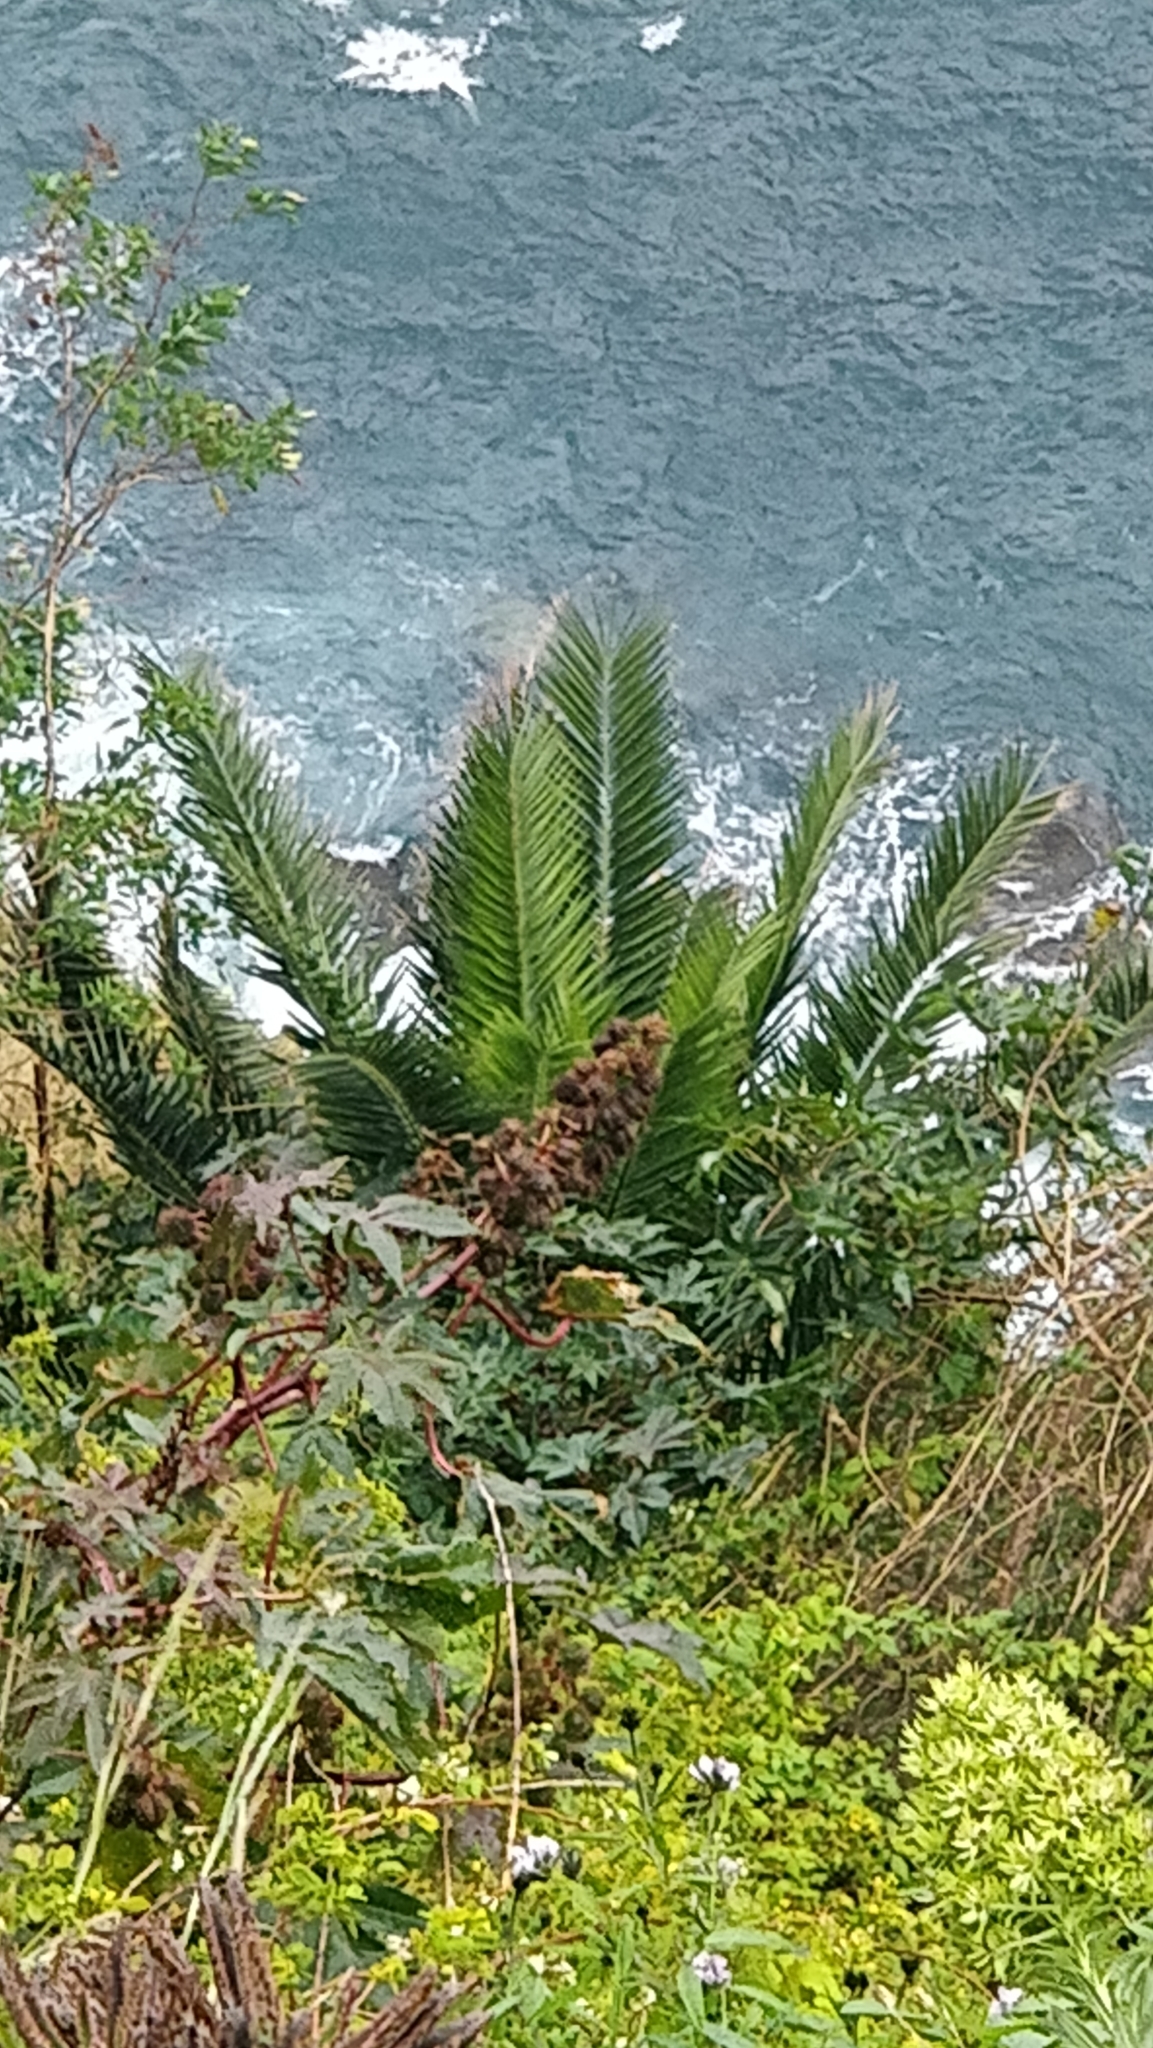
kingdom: Plantae
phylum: Tracheophyta
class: Liliopsida
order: Arecales
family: Arecaceae
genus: Phoenix
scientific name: Phoenix canariensis
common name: Canary island date palm
